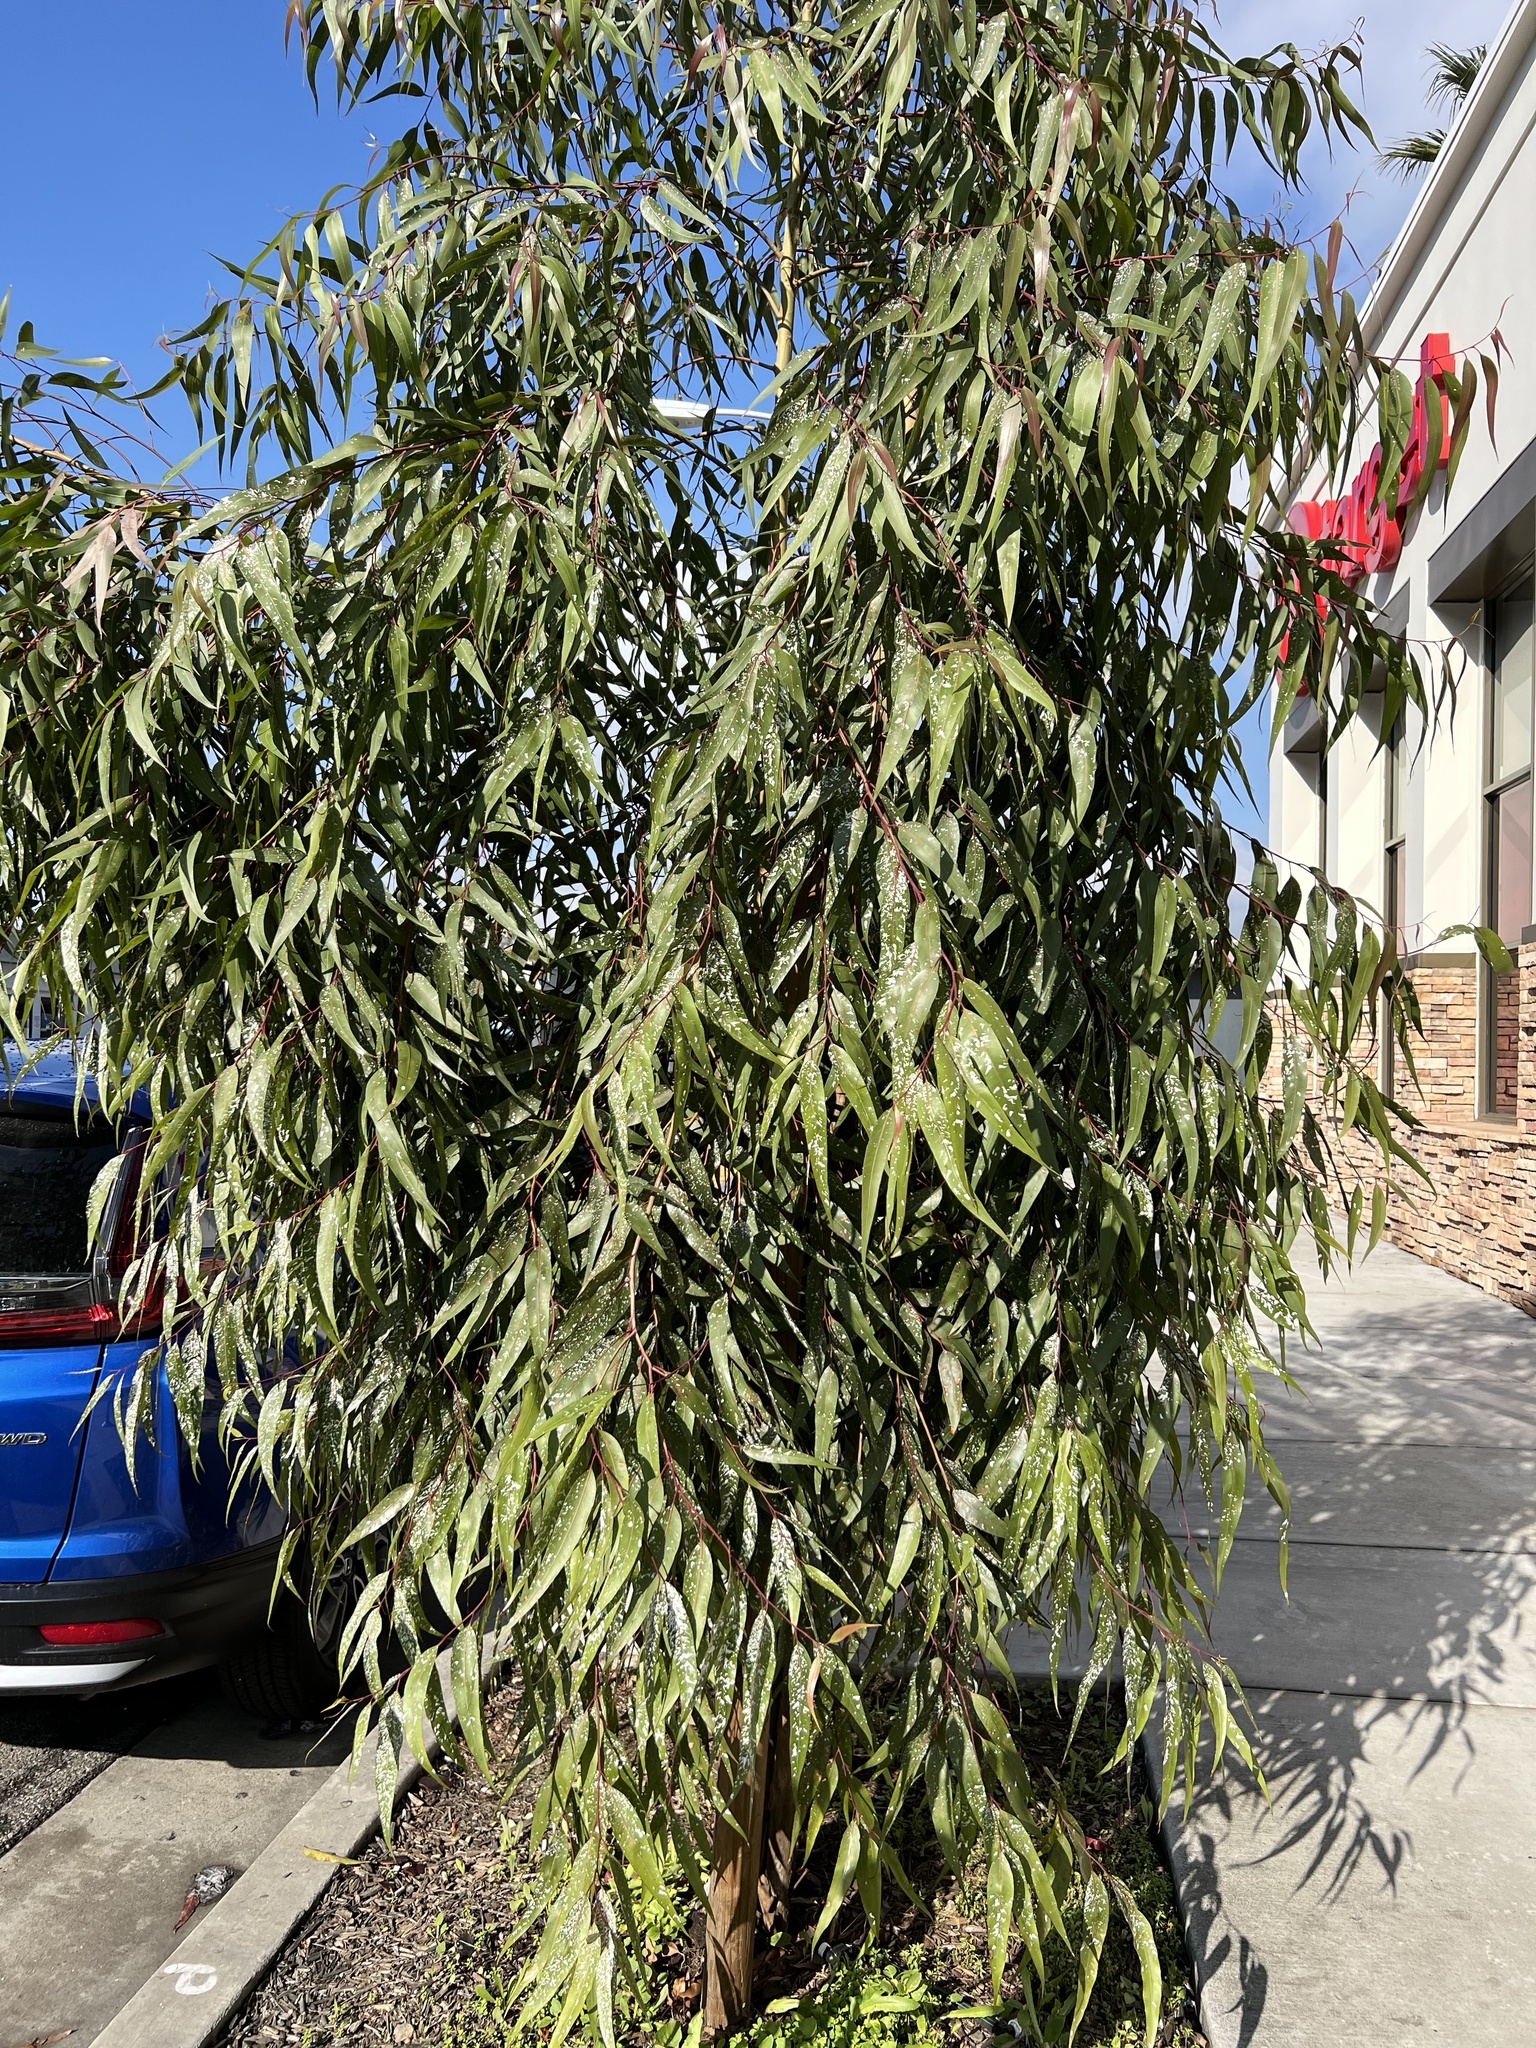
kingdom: Animalia
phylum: Arthropoda
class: Insecta
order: Hemiptera
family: Aphalaridae
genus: Eucalyptolyma
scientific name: Eucalyptolyma maideni
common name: Spotted gum lerp psyllid
